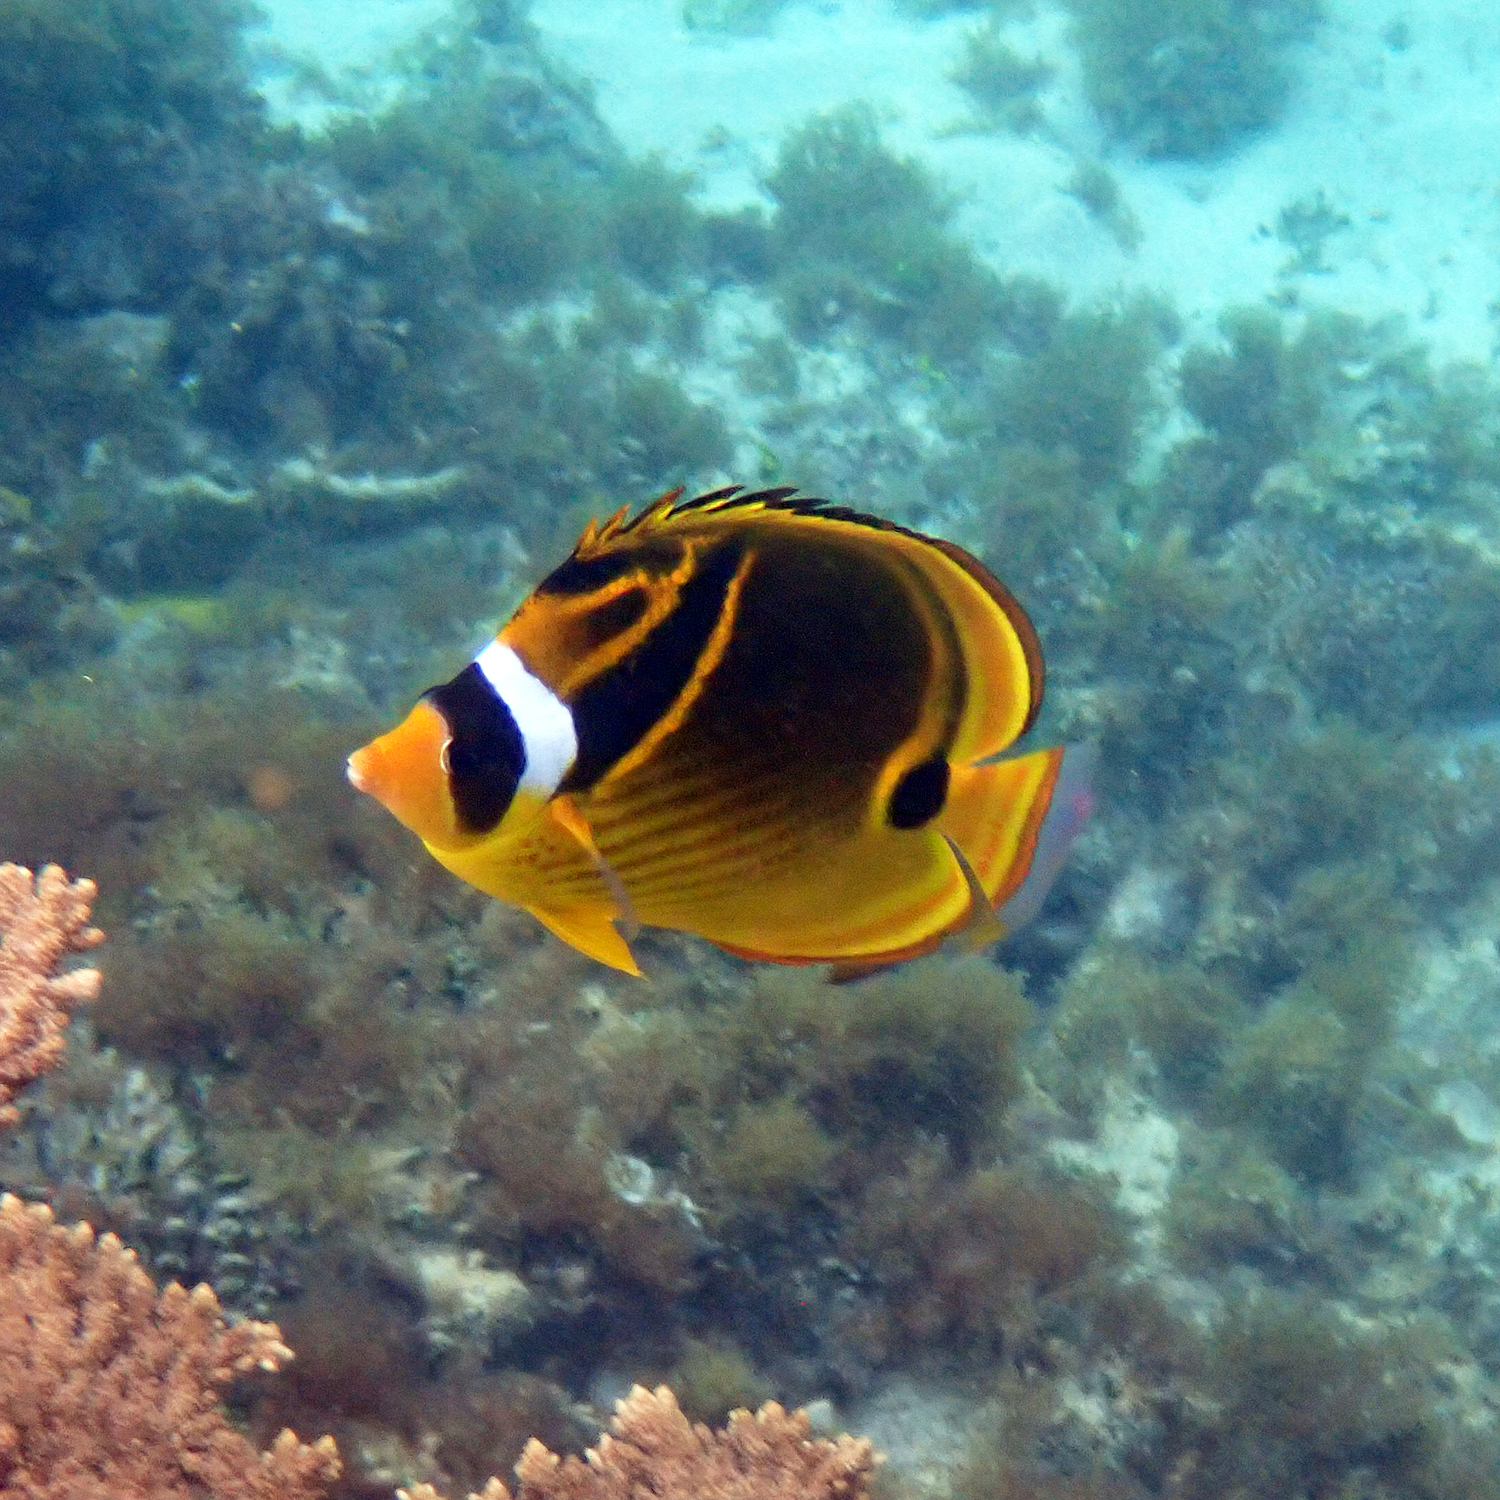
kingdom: Animalia
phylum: Chordata
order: Perciformes
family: Chaetodontidae
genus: Chaetodon
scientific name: Chaetodon lunula
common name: Raccoon butterflyfish
